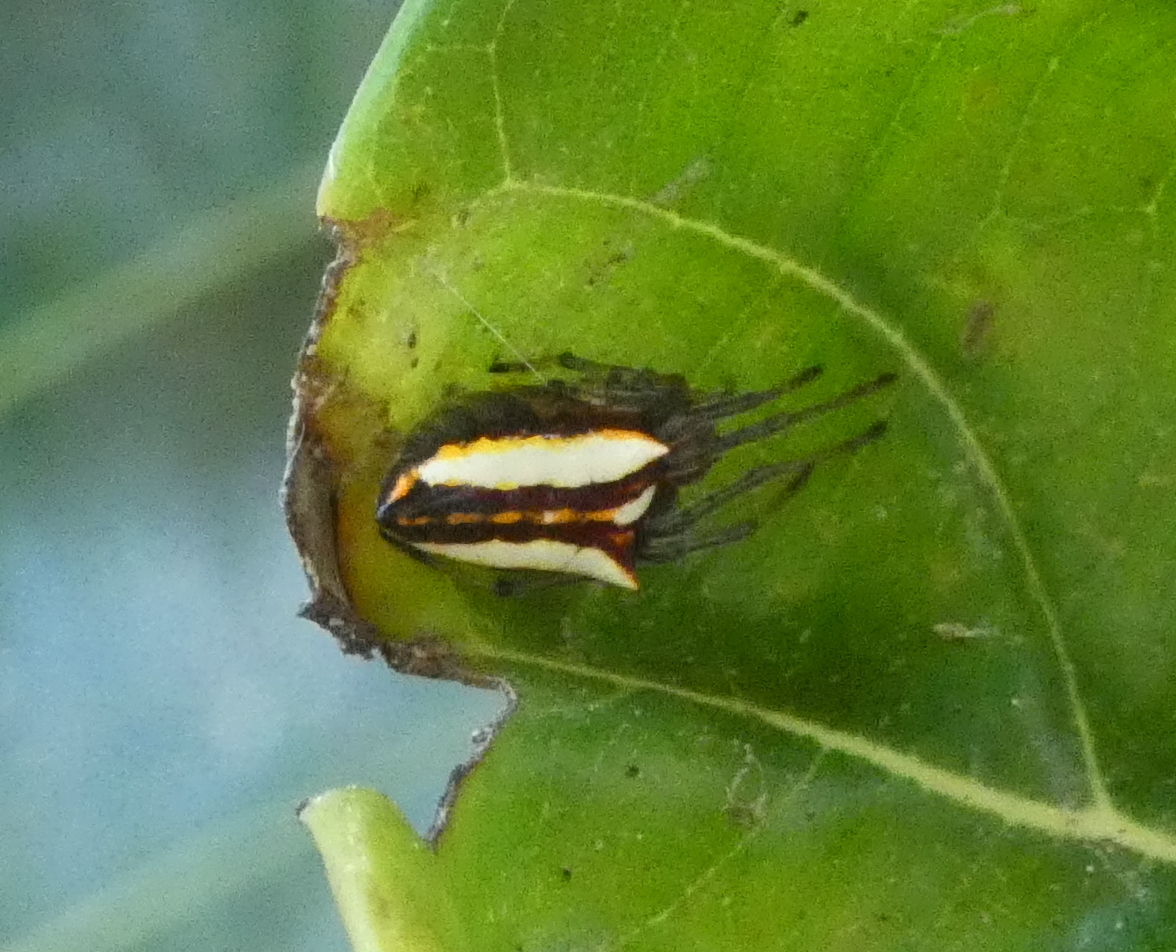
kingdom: Animalia
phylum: Arthropoda
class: Arachnida
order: Araneae
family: Araneidae
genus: Alpaida
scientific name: Alpaida bicornuta
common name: Orb weavers
